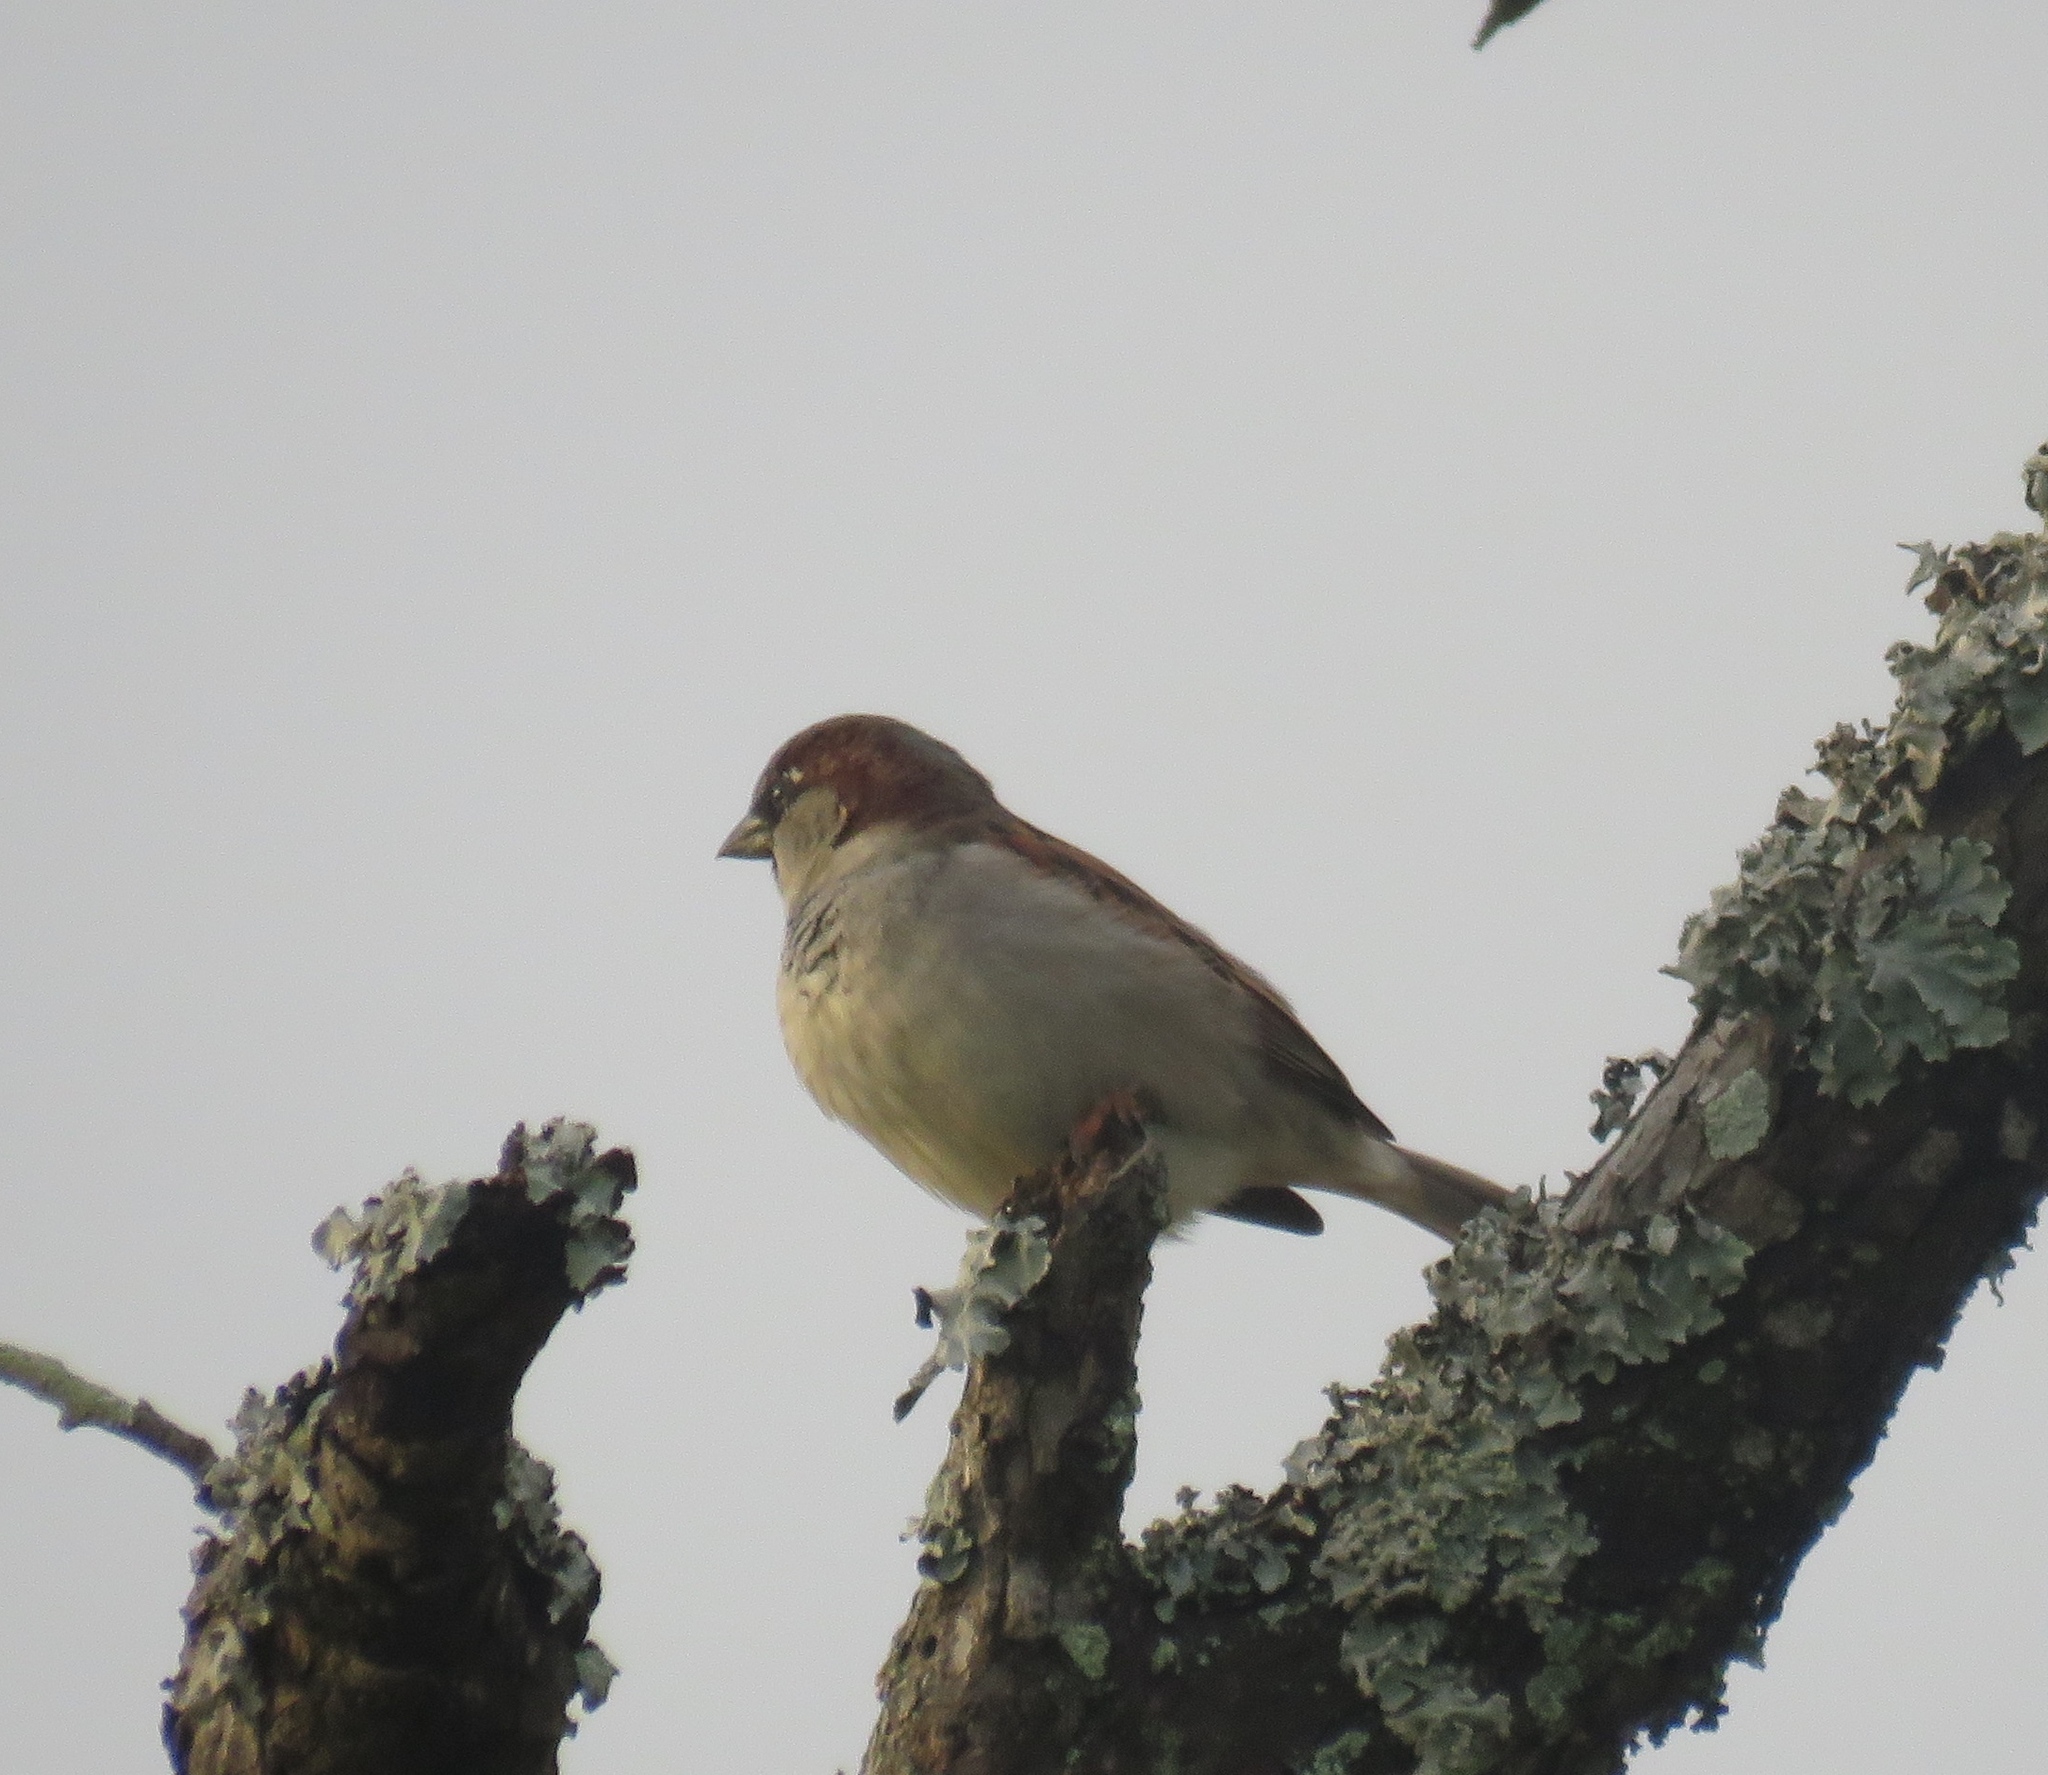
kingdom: Animalia
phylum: Chordata
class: Aves
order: Passeriformes
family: Passeridae
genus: Passer
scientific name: Passer domesticus
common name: House sparrow
